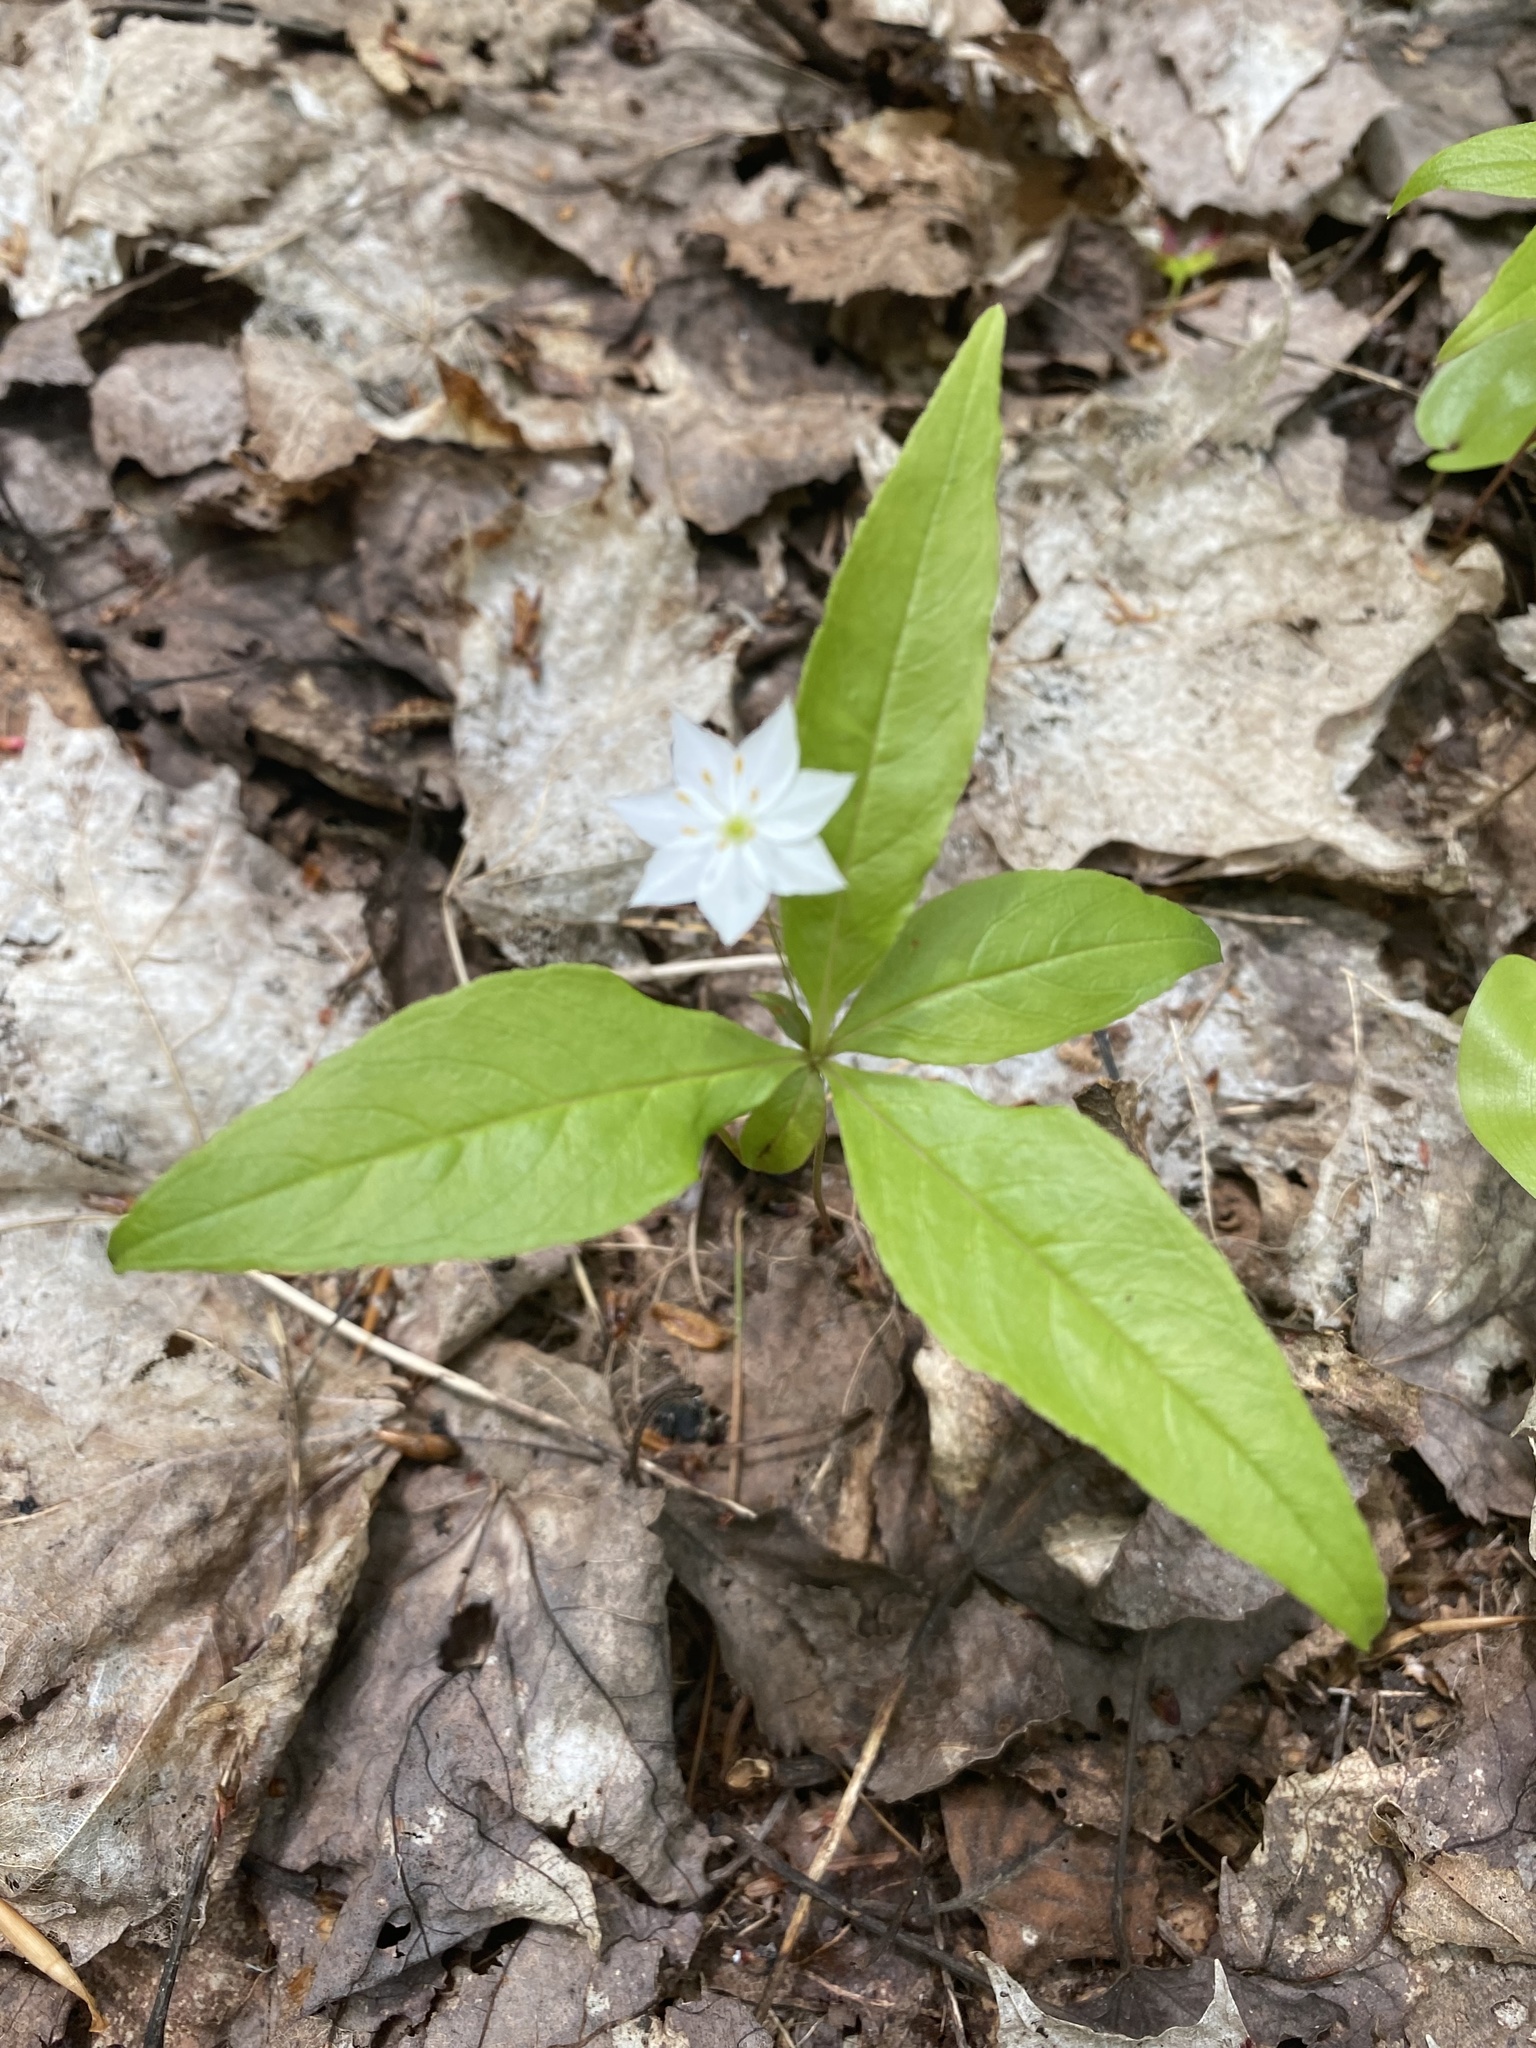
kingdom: Plantae
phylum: Tracheophyta
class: Magnoliopsida
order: Ericales
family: Primulaceae
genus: Lysimachia
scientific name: Lysimachia borealis
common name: American starflower
